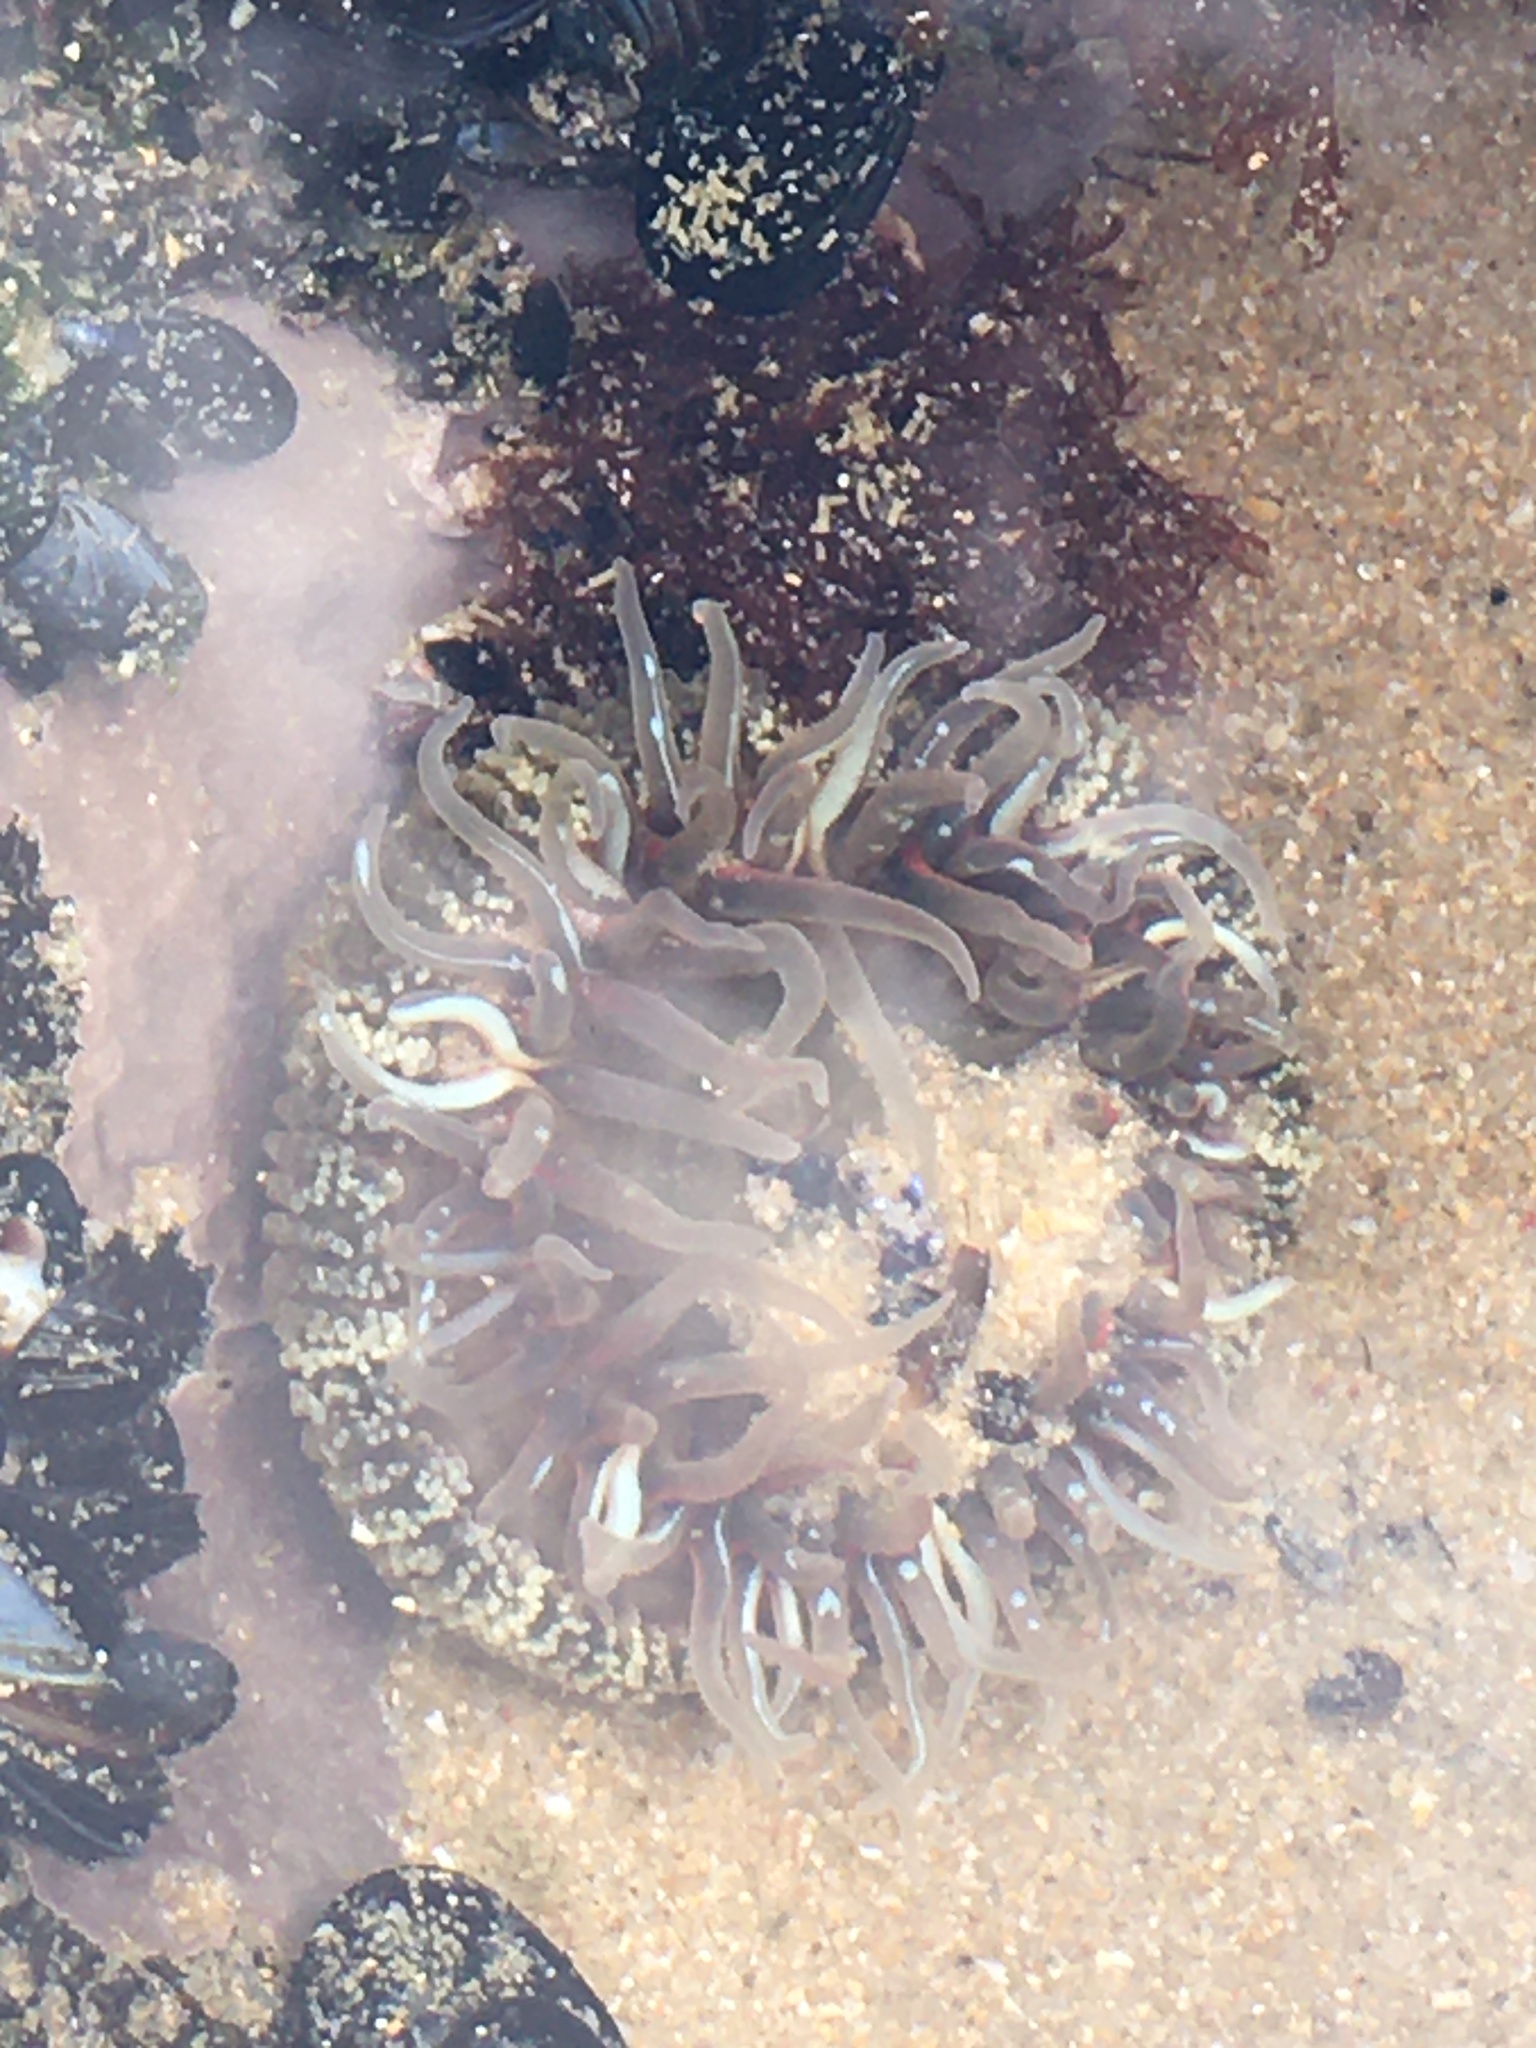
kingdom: Animalia
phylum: Cnidaria
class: Anthozoa
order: Actiniaria
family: Actiniidae
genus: Anthopleura
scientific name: Anthopleura biscayensis
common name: Bunodosoma biscayense
